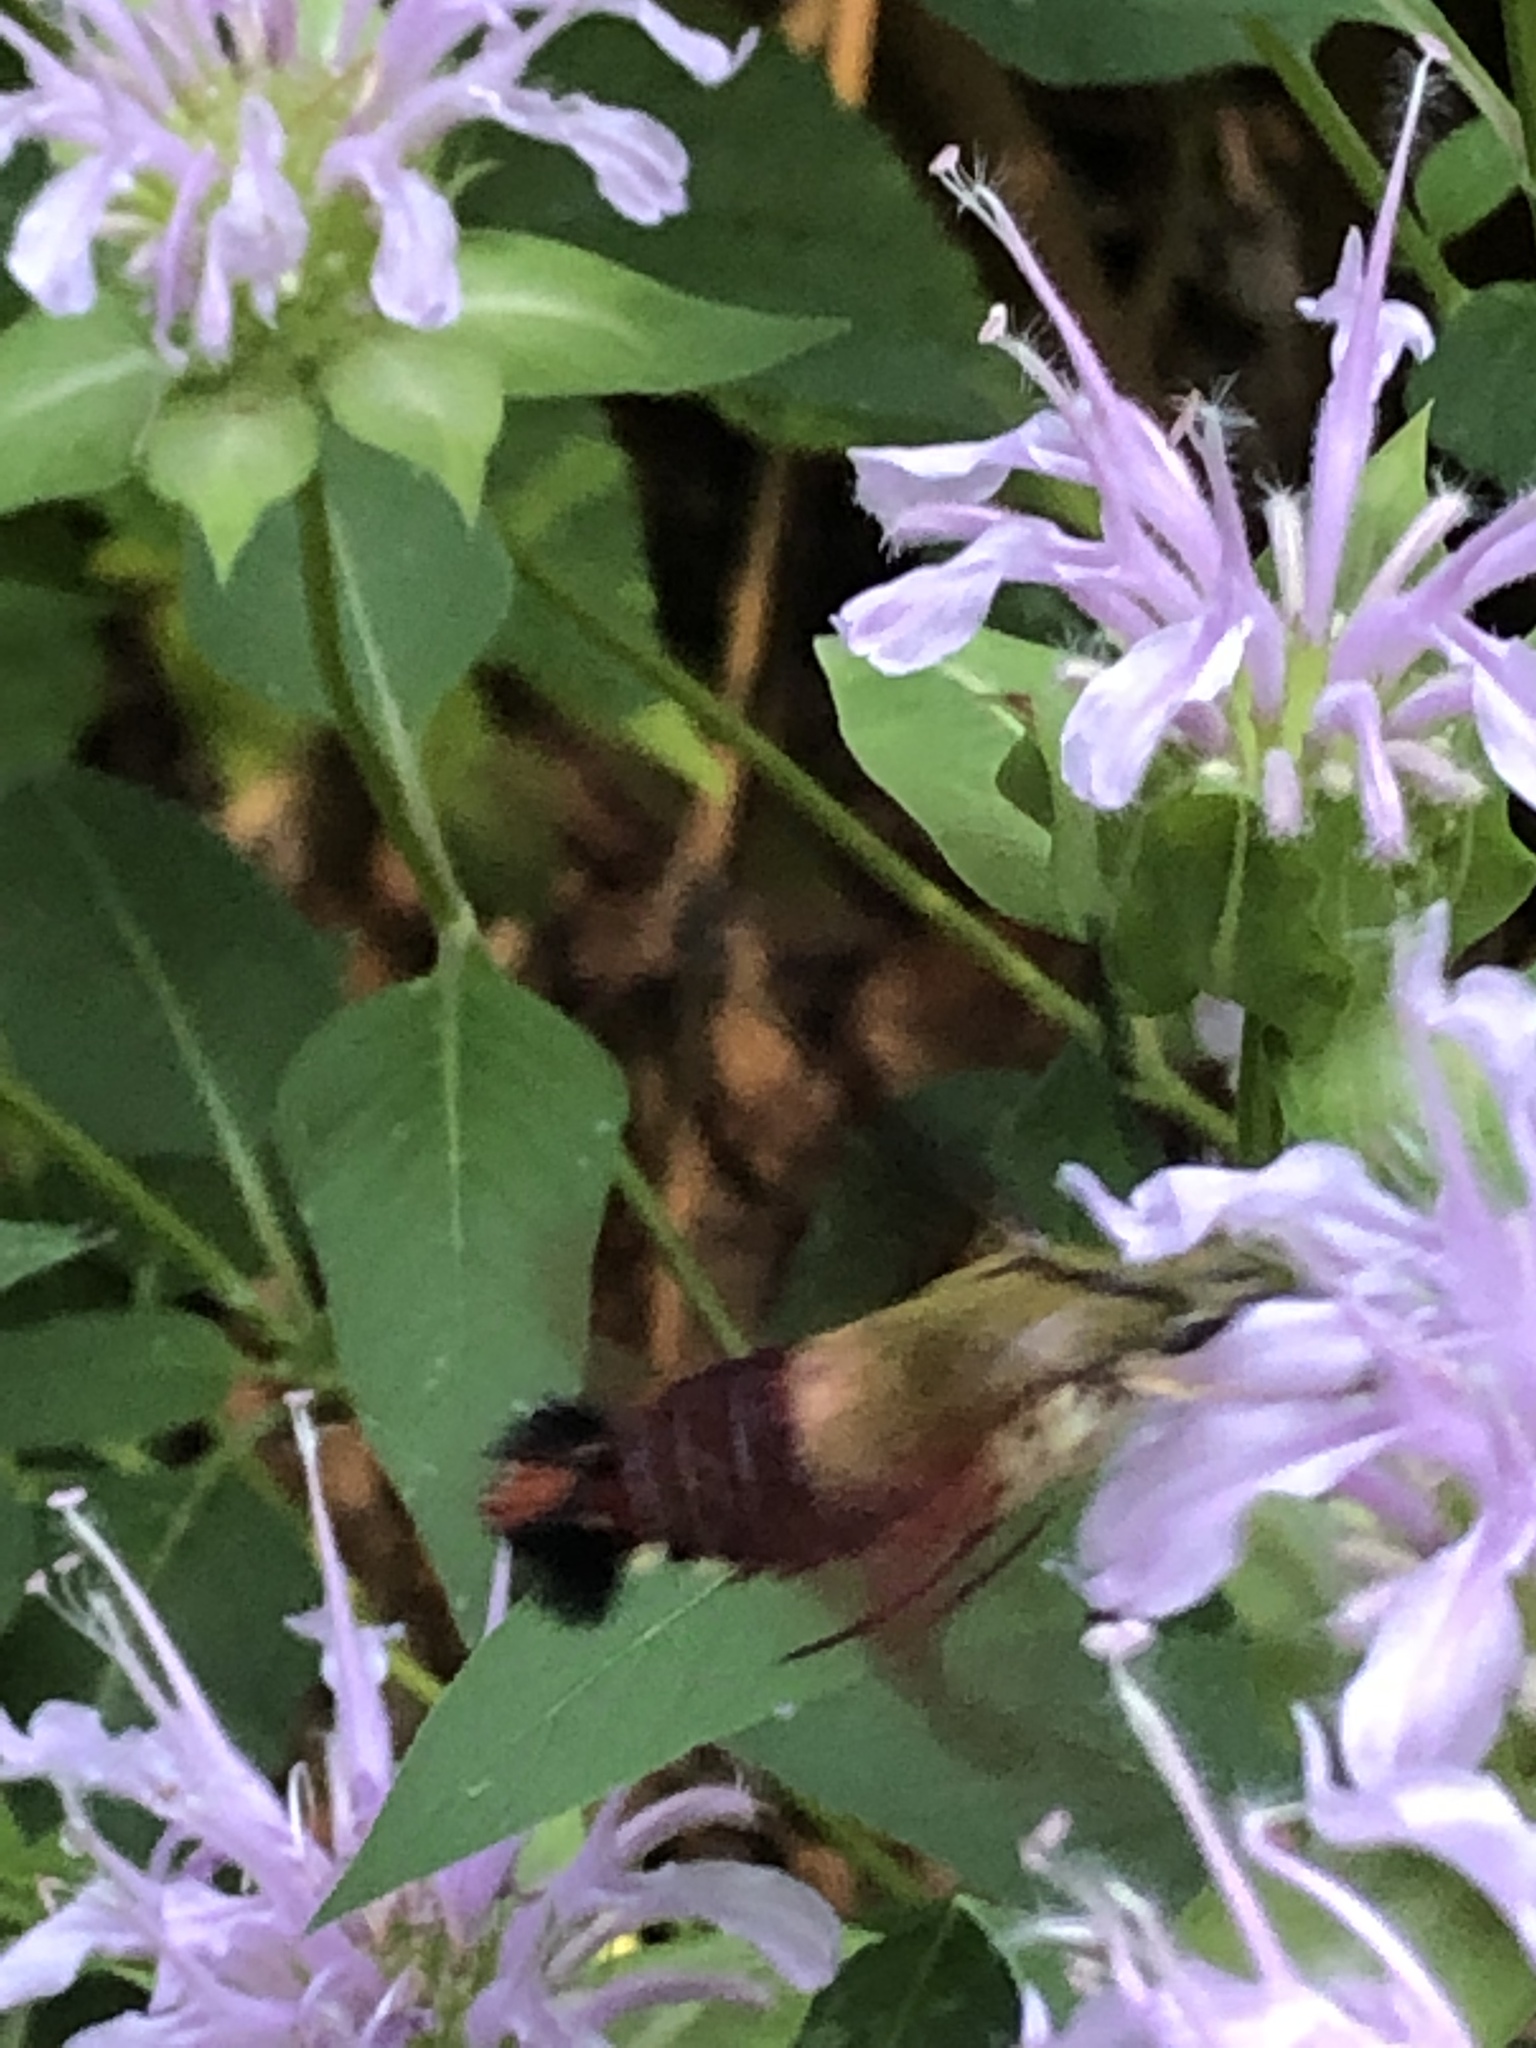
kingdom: Animalia
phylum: Arthropoda
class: Insecta
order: Lepidoptera
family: Sphingidae
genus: Hemaris
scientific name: Hemaris thysbe
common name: Common clear-wing
